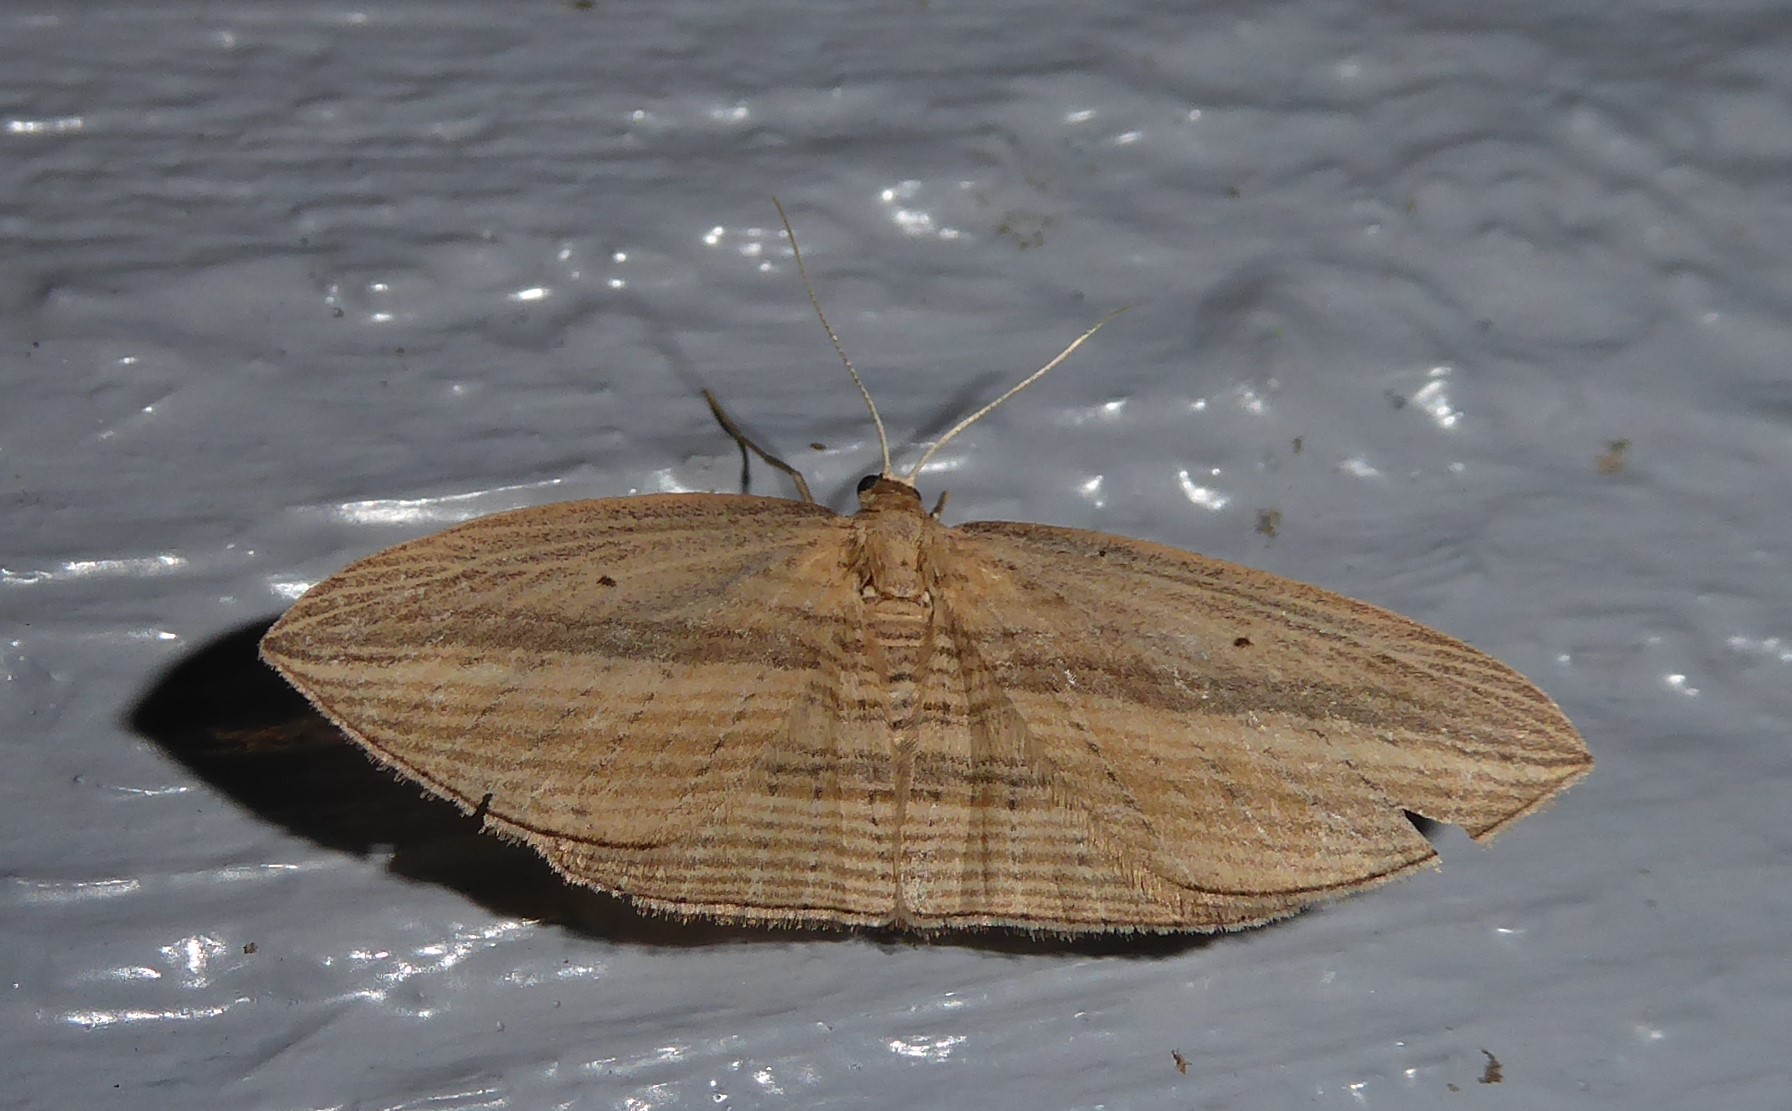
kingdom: Animalia
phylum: Arthropoda
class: Insecta
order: Lepidoptera
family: Geometridae
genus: Epiphryne
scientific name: Epiphryne verriculata
